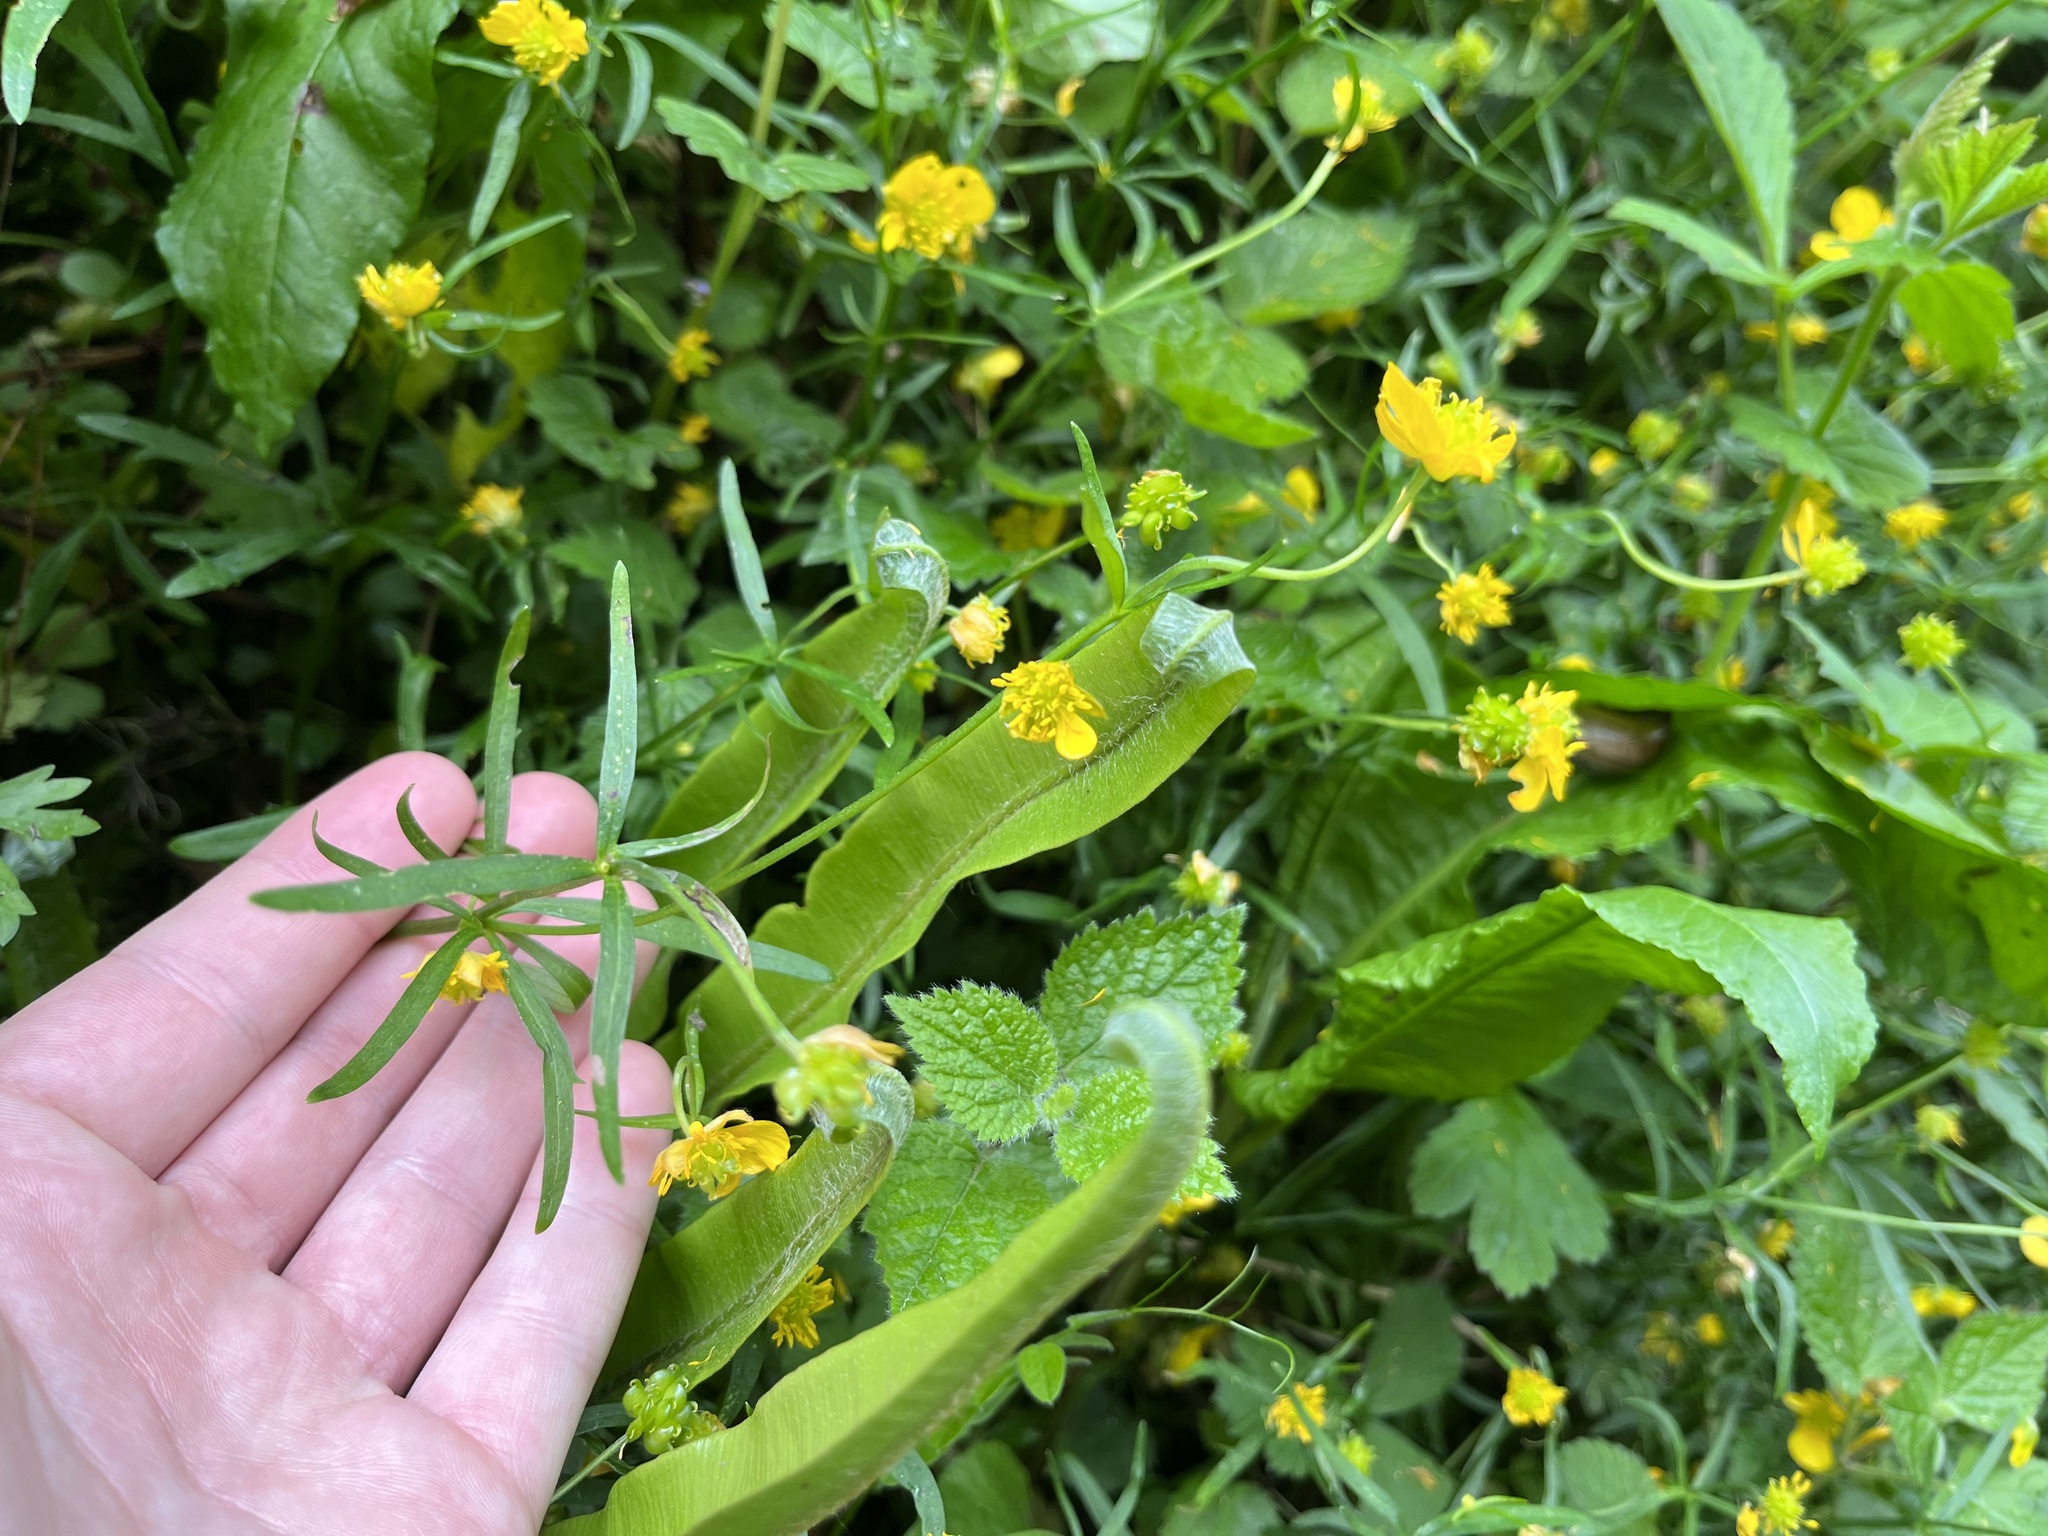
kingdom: Plantae
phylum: Tracheophyta
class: Magnoliopsida
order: Ranunculales
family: Ranunculaceae
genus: Ranunculus
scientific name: Ranunculus auricomus
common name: Goldilocks buttercup
